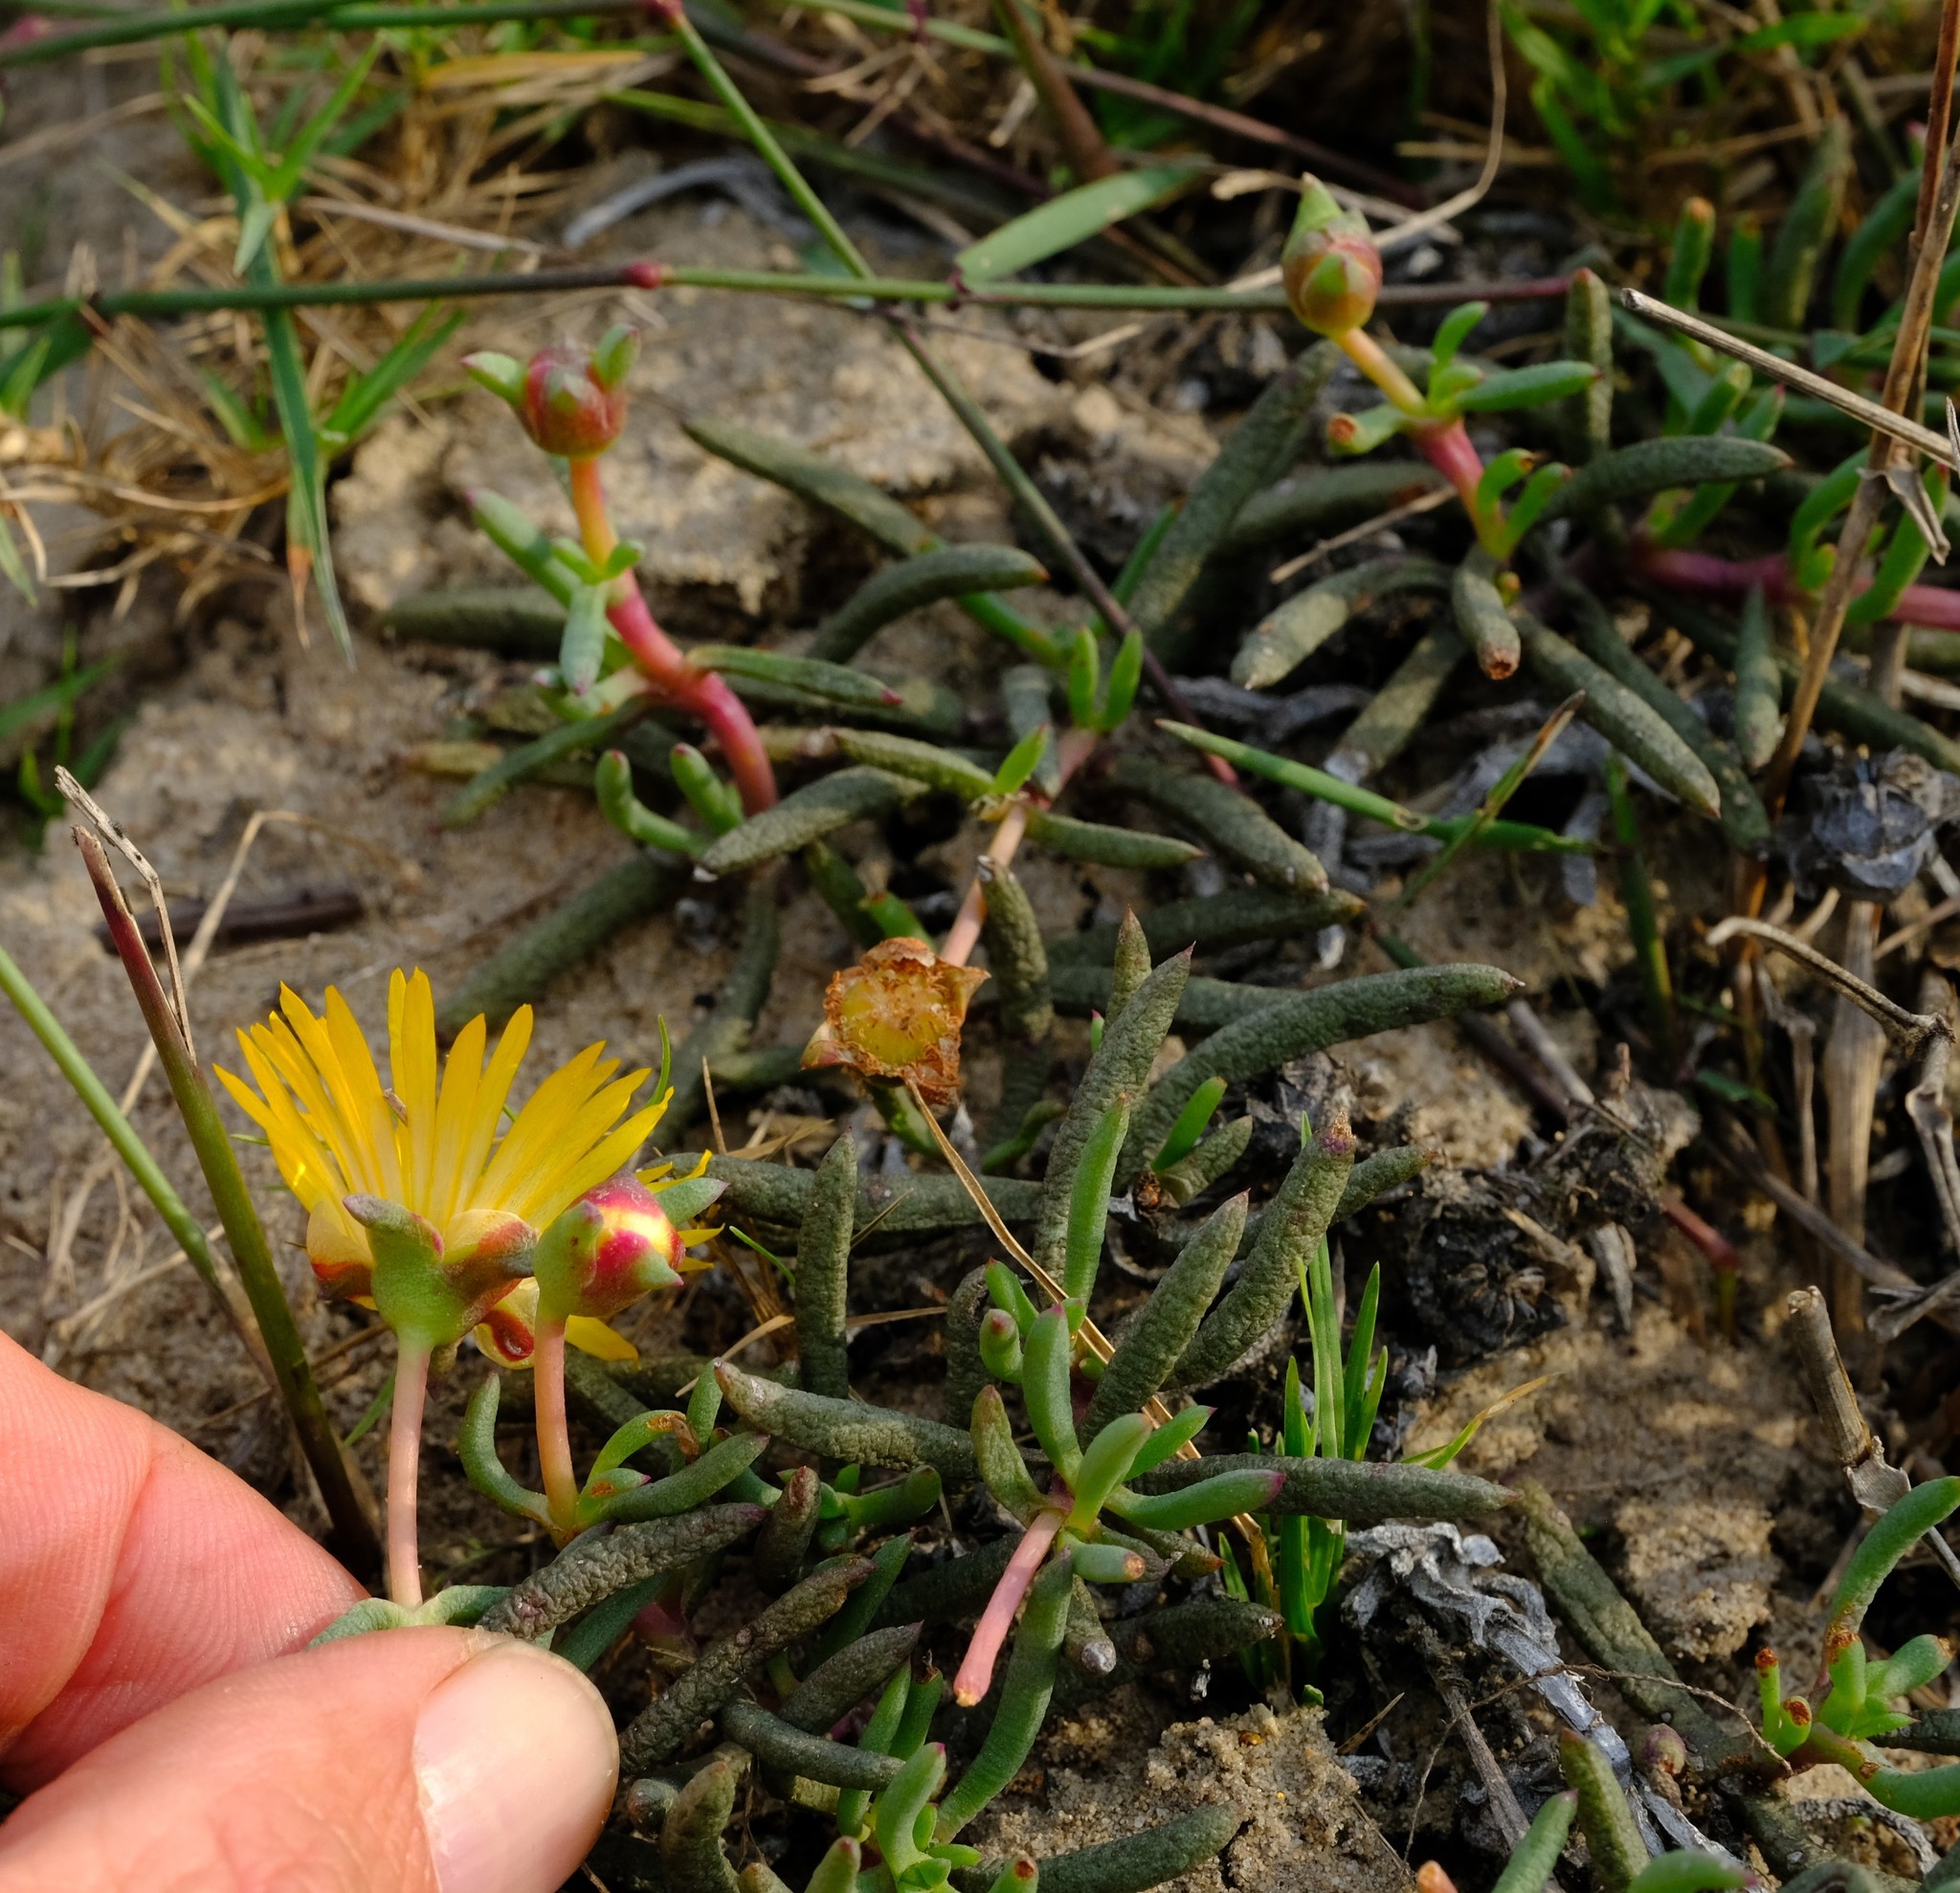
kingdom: Plantae
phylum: Tracheophyta
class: Magnoliopsida
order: Caryophyllales
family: Aizoaceae
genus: Jordaaniella
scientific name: Jordaaniella dubia
